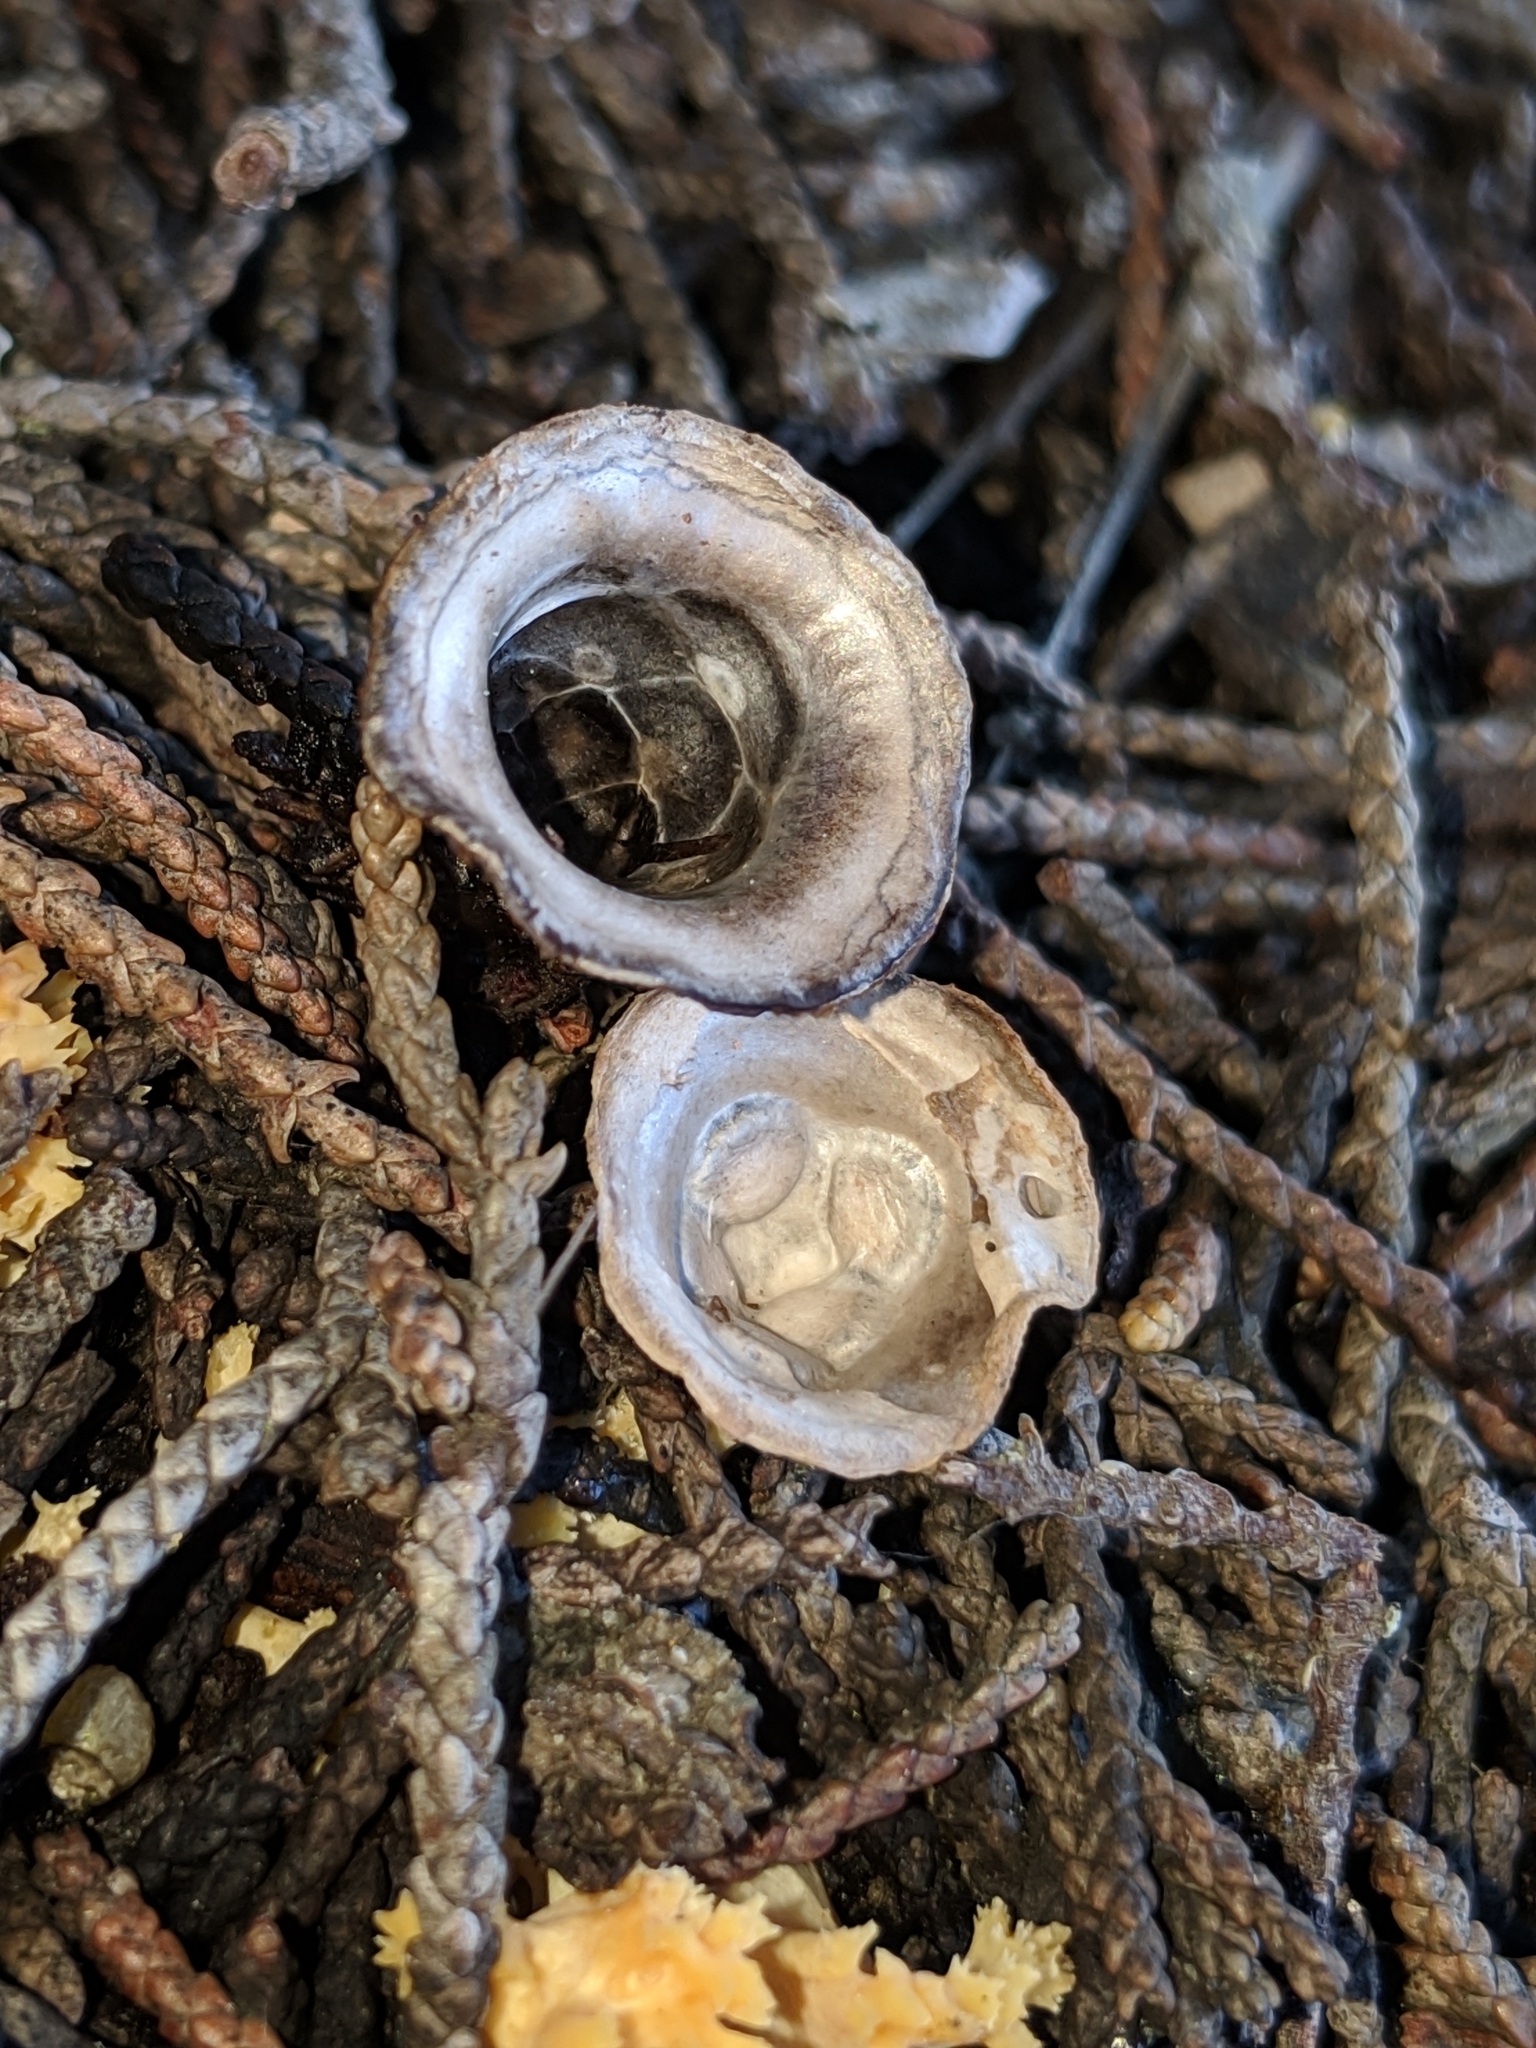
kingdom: Fungi
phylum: Basidiomycota
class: Agaricomycetes
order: Agaricales
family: Agaricaceae
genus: Cyathus
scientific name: Cyathus olla
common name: Field bird's nest
